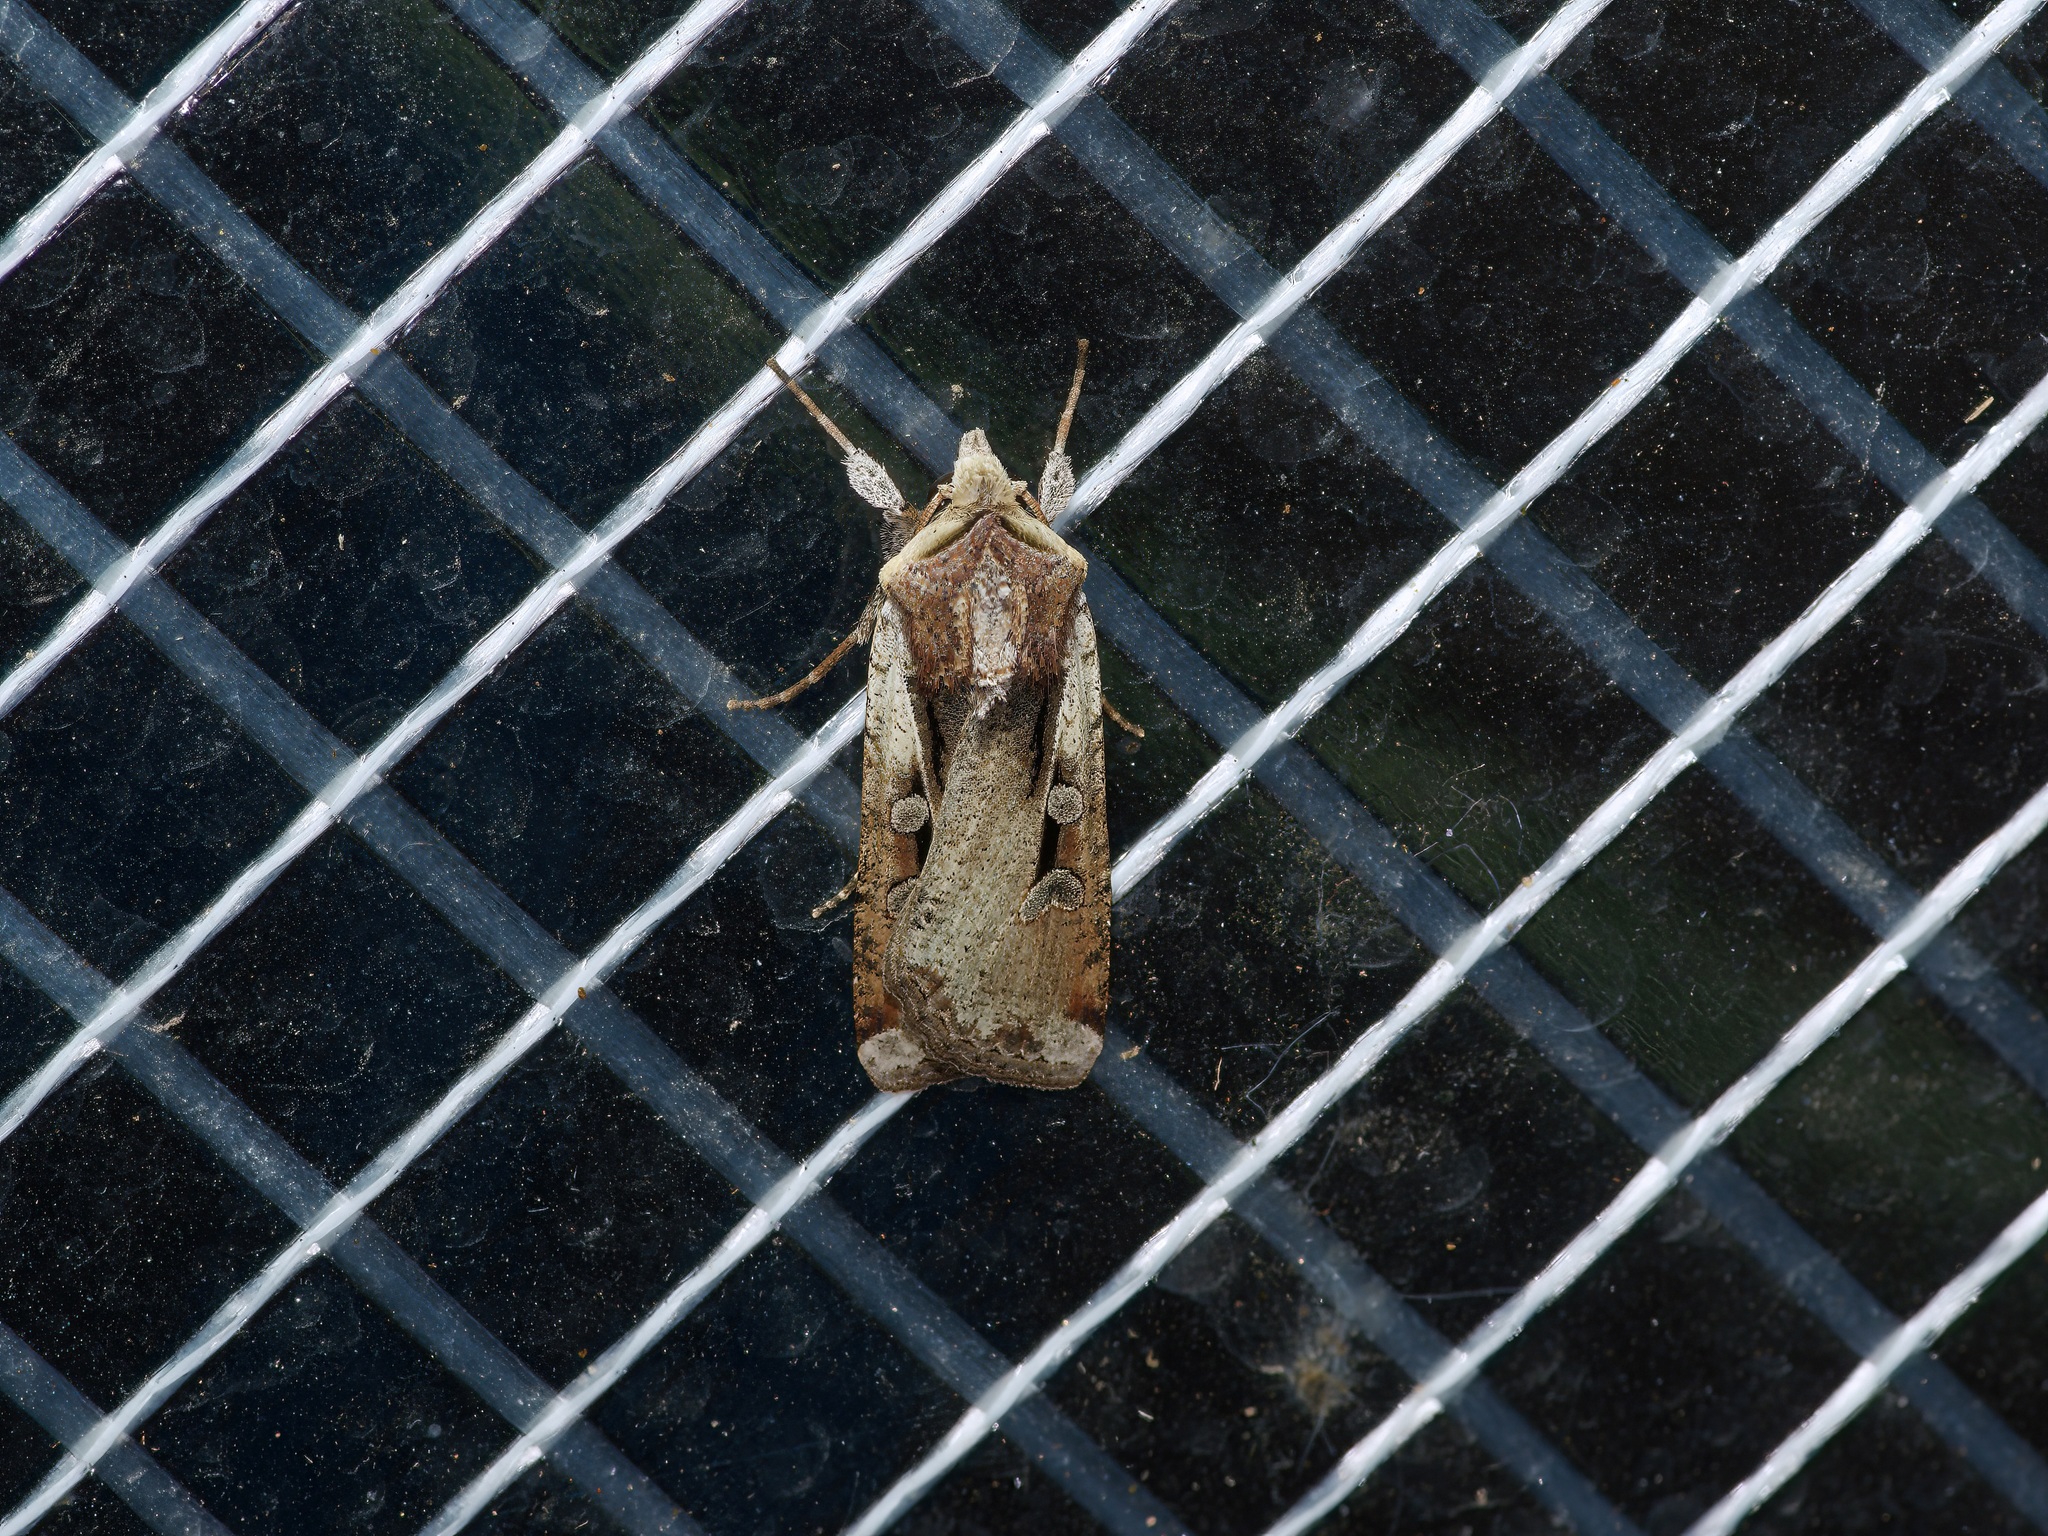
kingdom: Animalia
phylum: Arthropoda
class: Insecta
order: Lepidoptera
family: Noctuidae
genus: Hemieuxoa
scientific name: Hemieuxoa rudens
